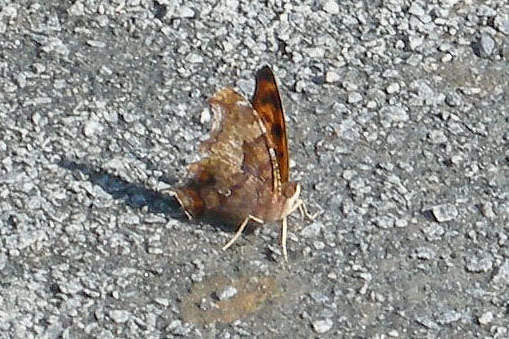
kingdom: Animalia
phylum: Arthropoda
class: Insecta
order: Lepidoptera
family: Nymphalidae
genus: Polygonia
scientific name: Polygonia interrogationis
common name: Question mark
